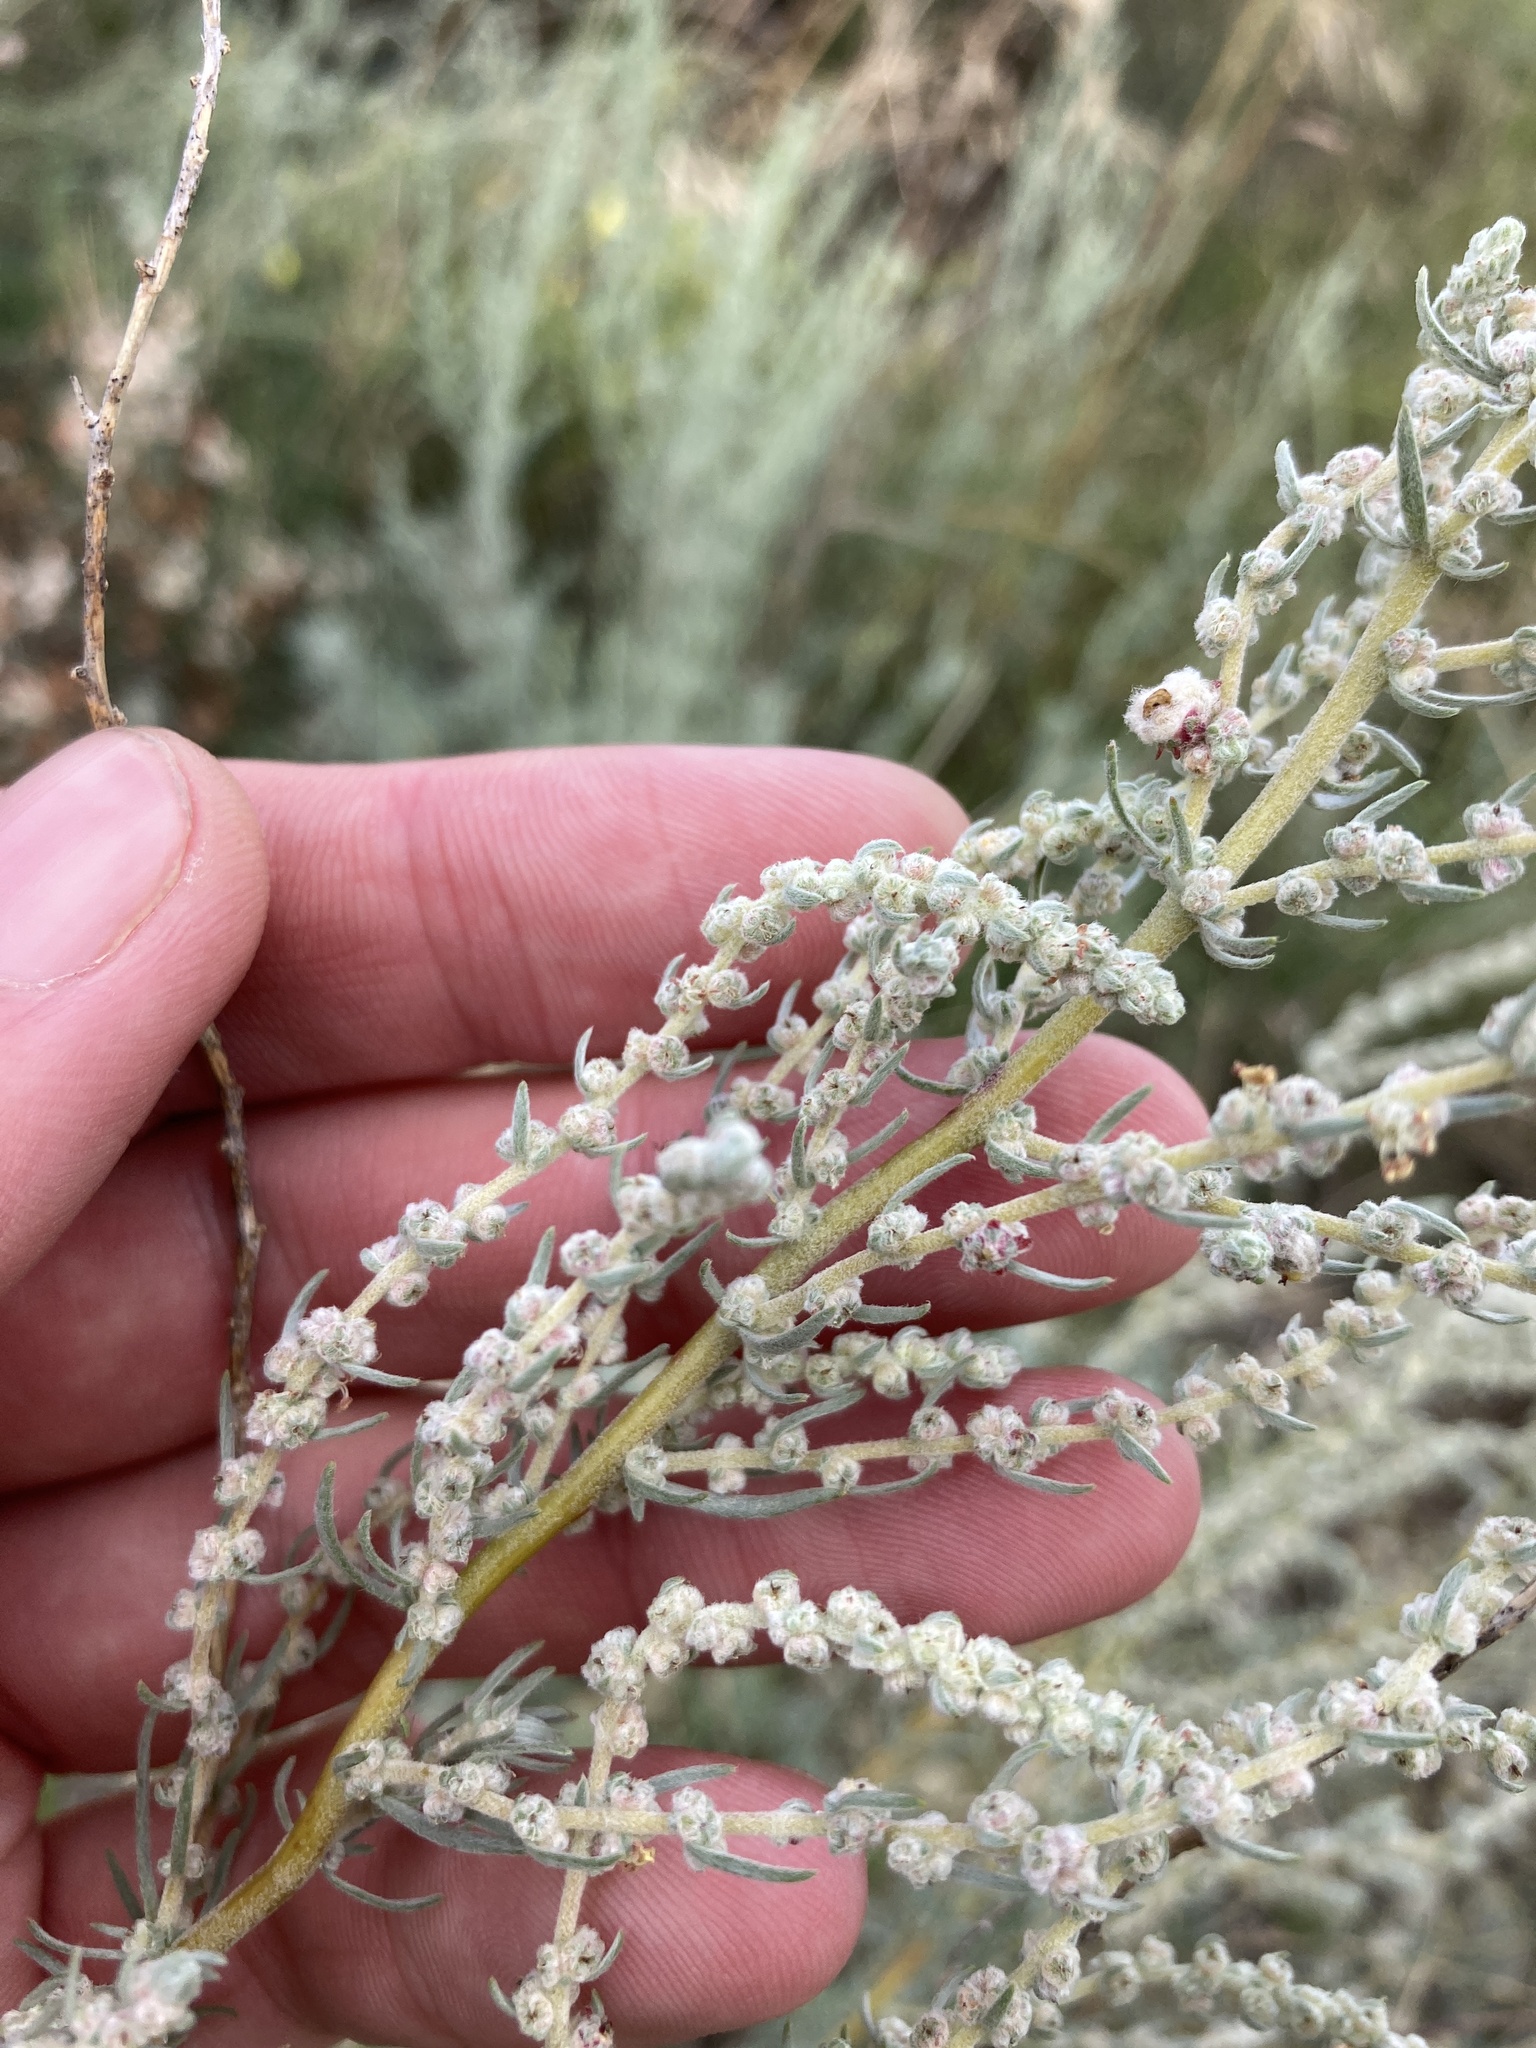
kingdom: Plantae
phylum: Tracheophyta
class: Magnoliopsida
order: Caryophyllales
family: Amaranthaceae
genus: Bassia
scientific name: Bassia prostrata
